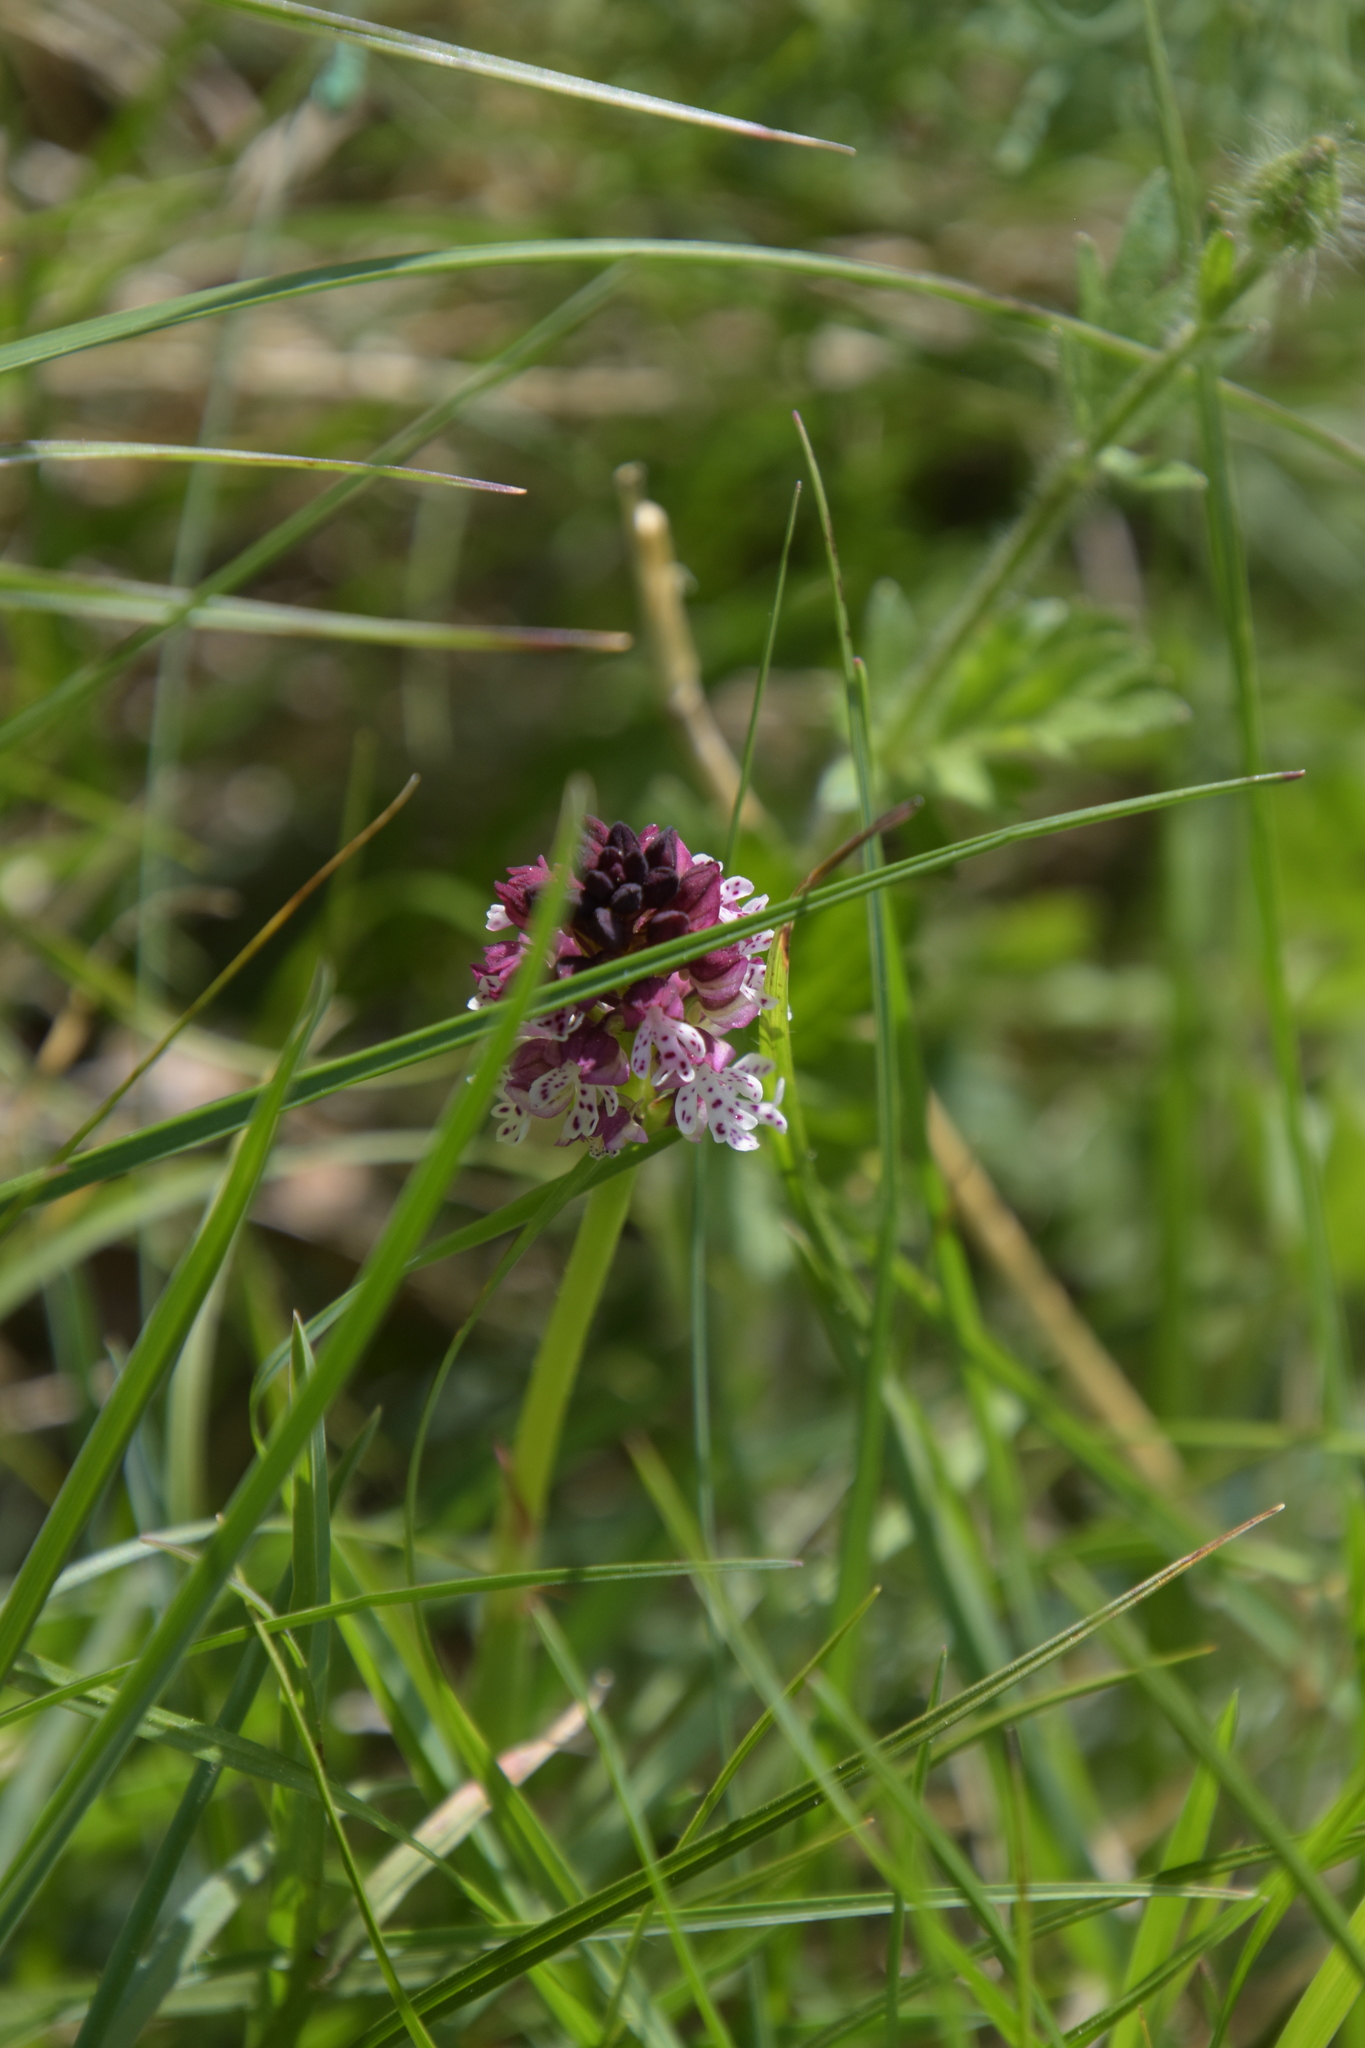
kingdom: Plantae
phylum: Tracheophyta
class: Liliopsida
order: Asparagales
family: Orchidaceae
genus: Neotinea
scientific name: Neotinea ustulata
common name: Burnt orchid
